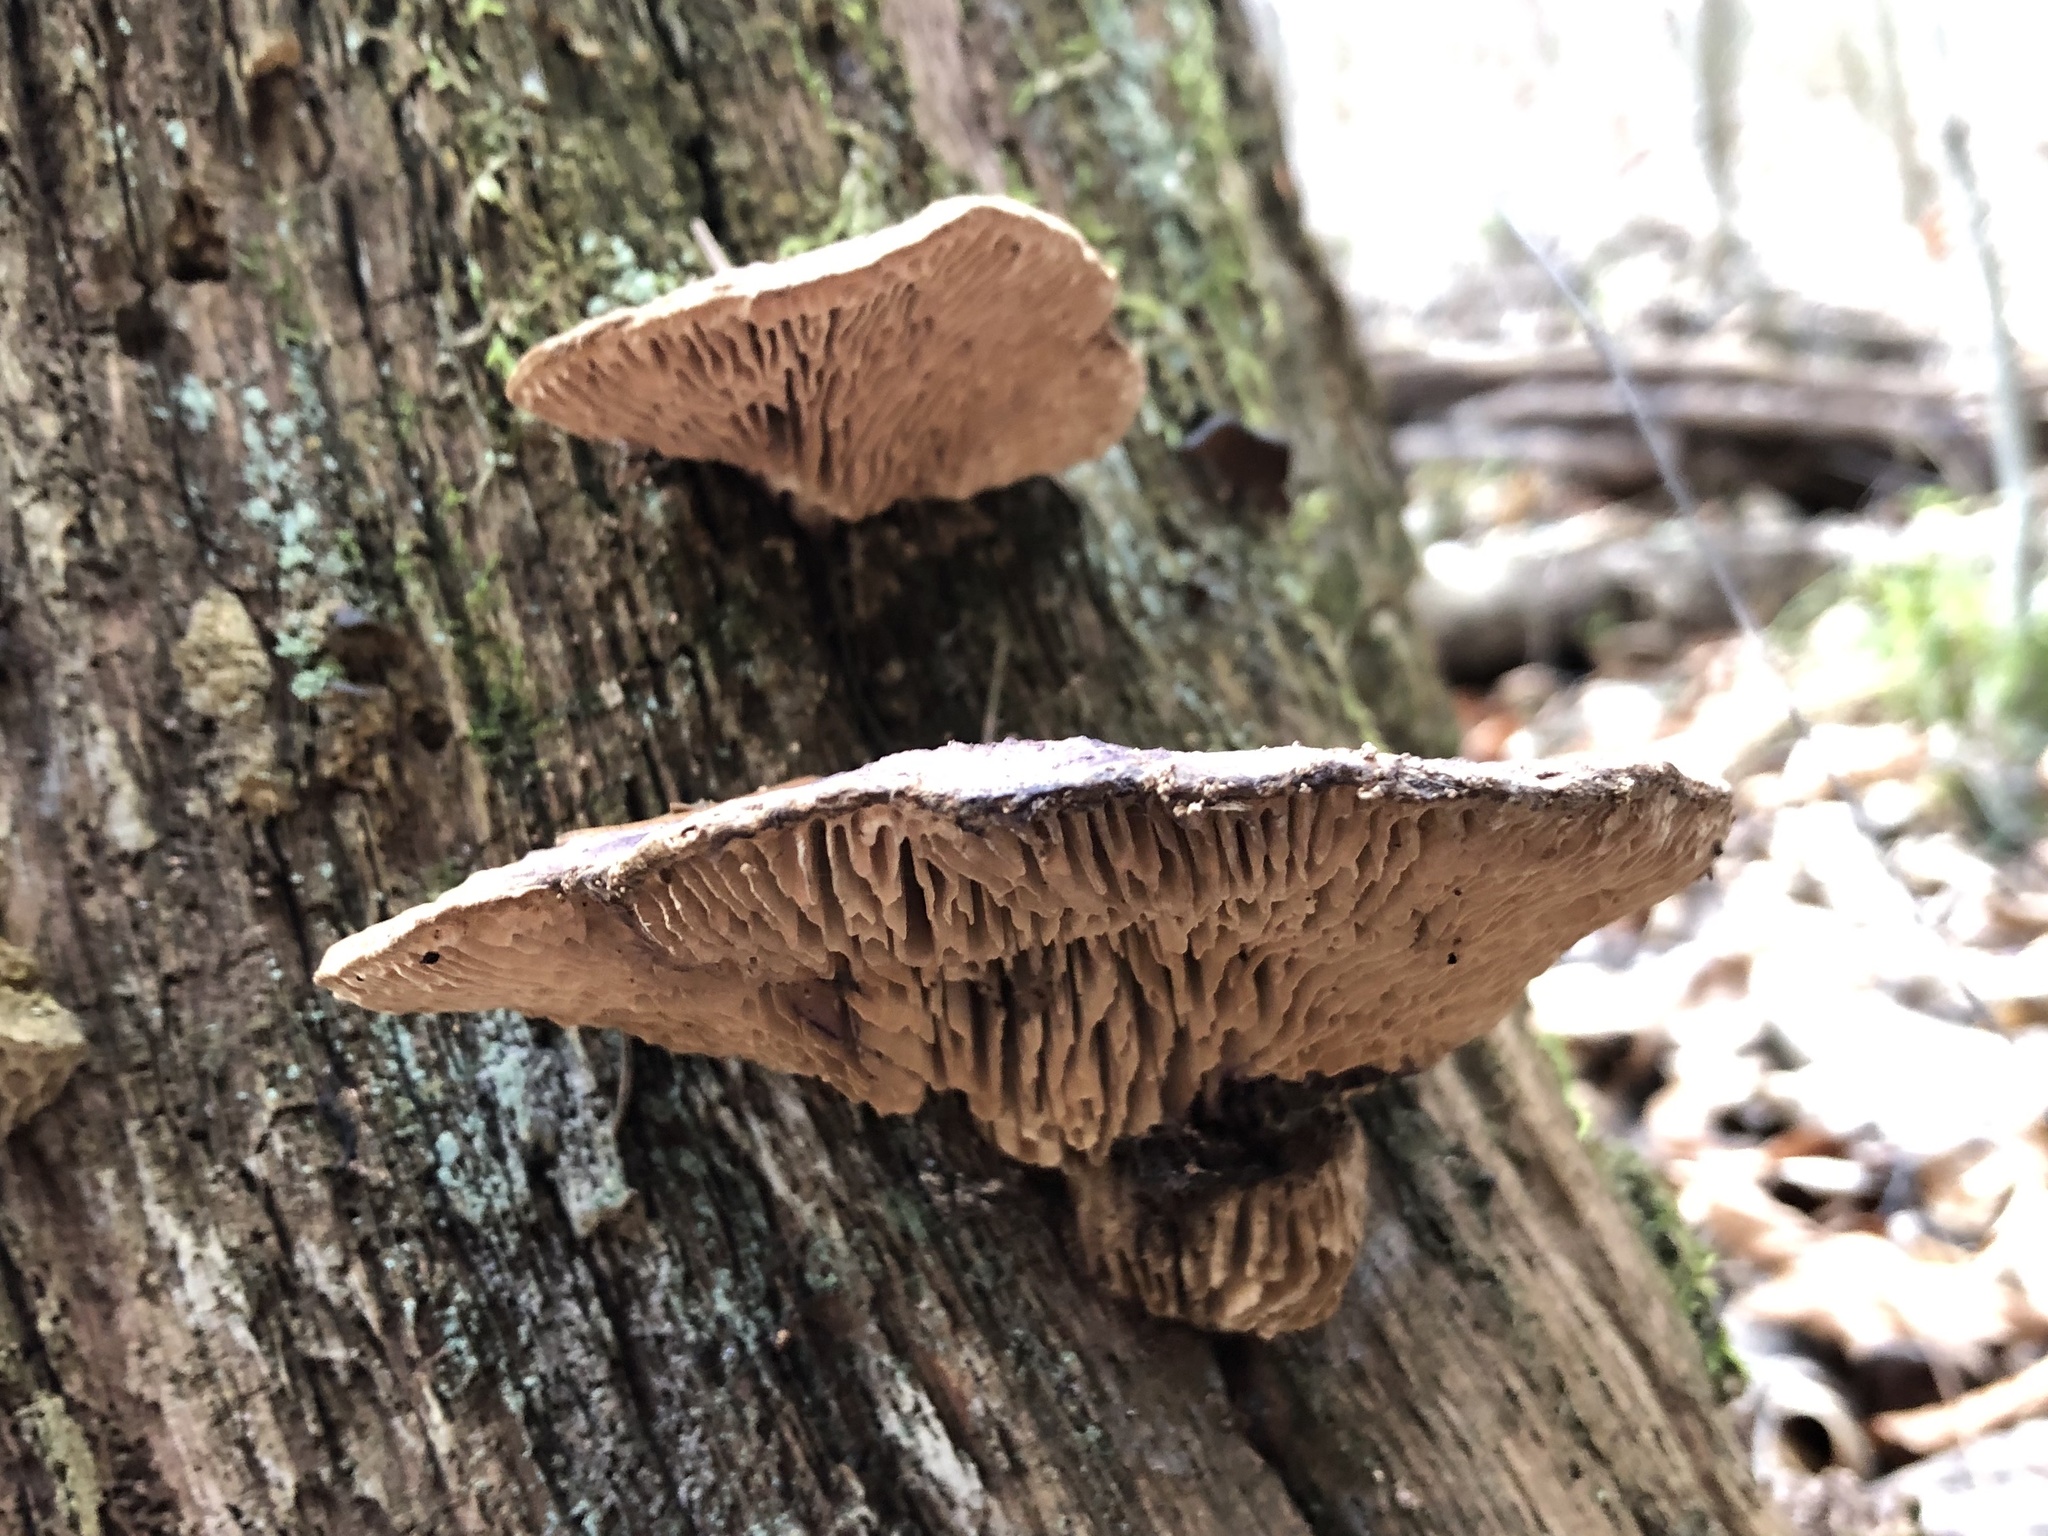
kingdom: Fungi
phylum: Basidiomycota
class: Agaricomycetes
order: Polyporales
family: Fomitopsidaceae
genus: Fomitopsis
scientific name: Fomitopsis
